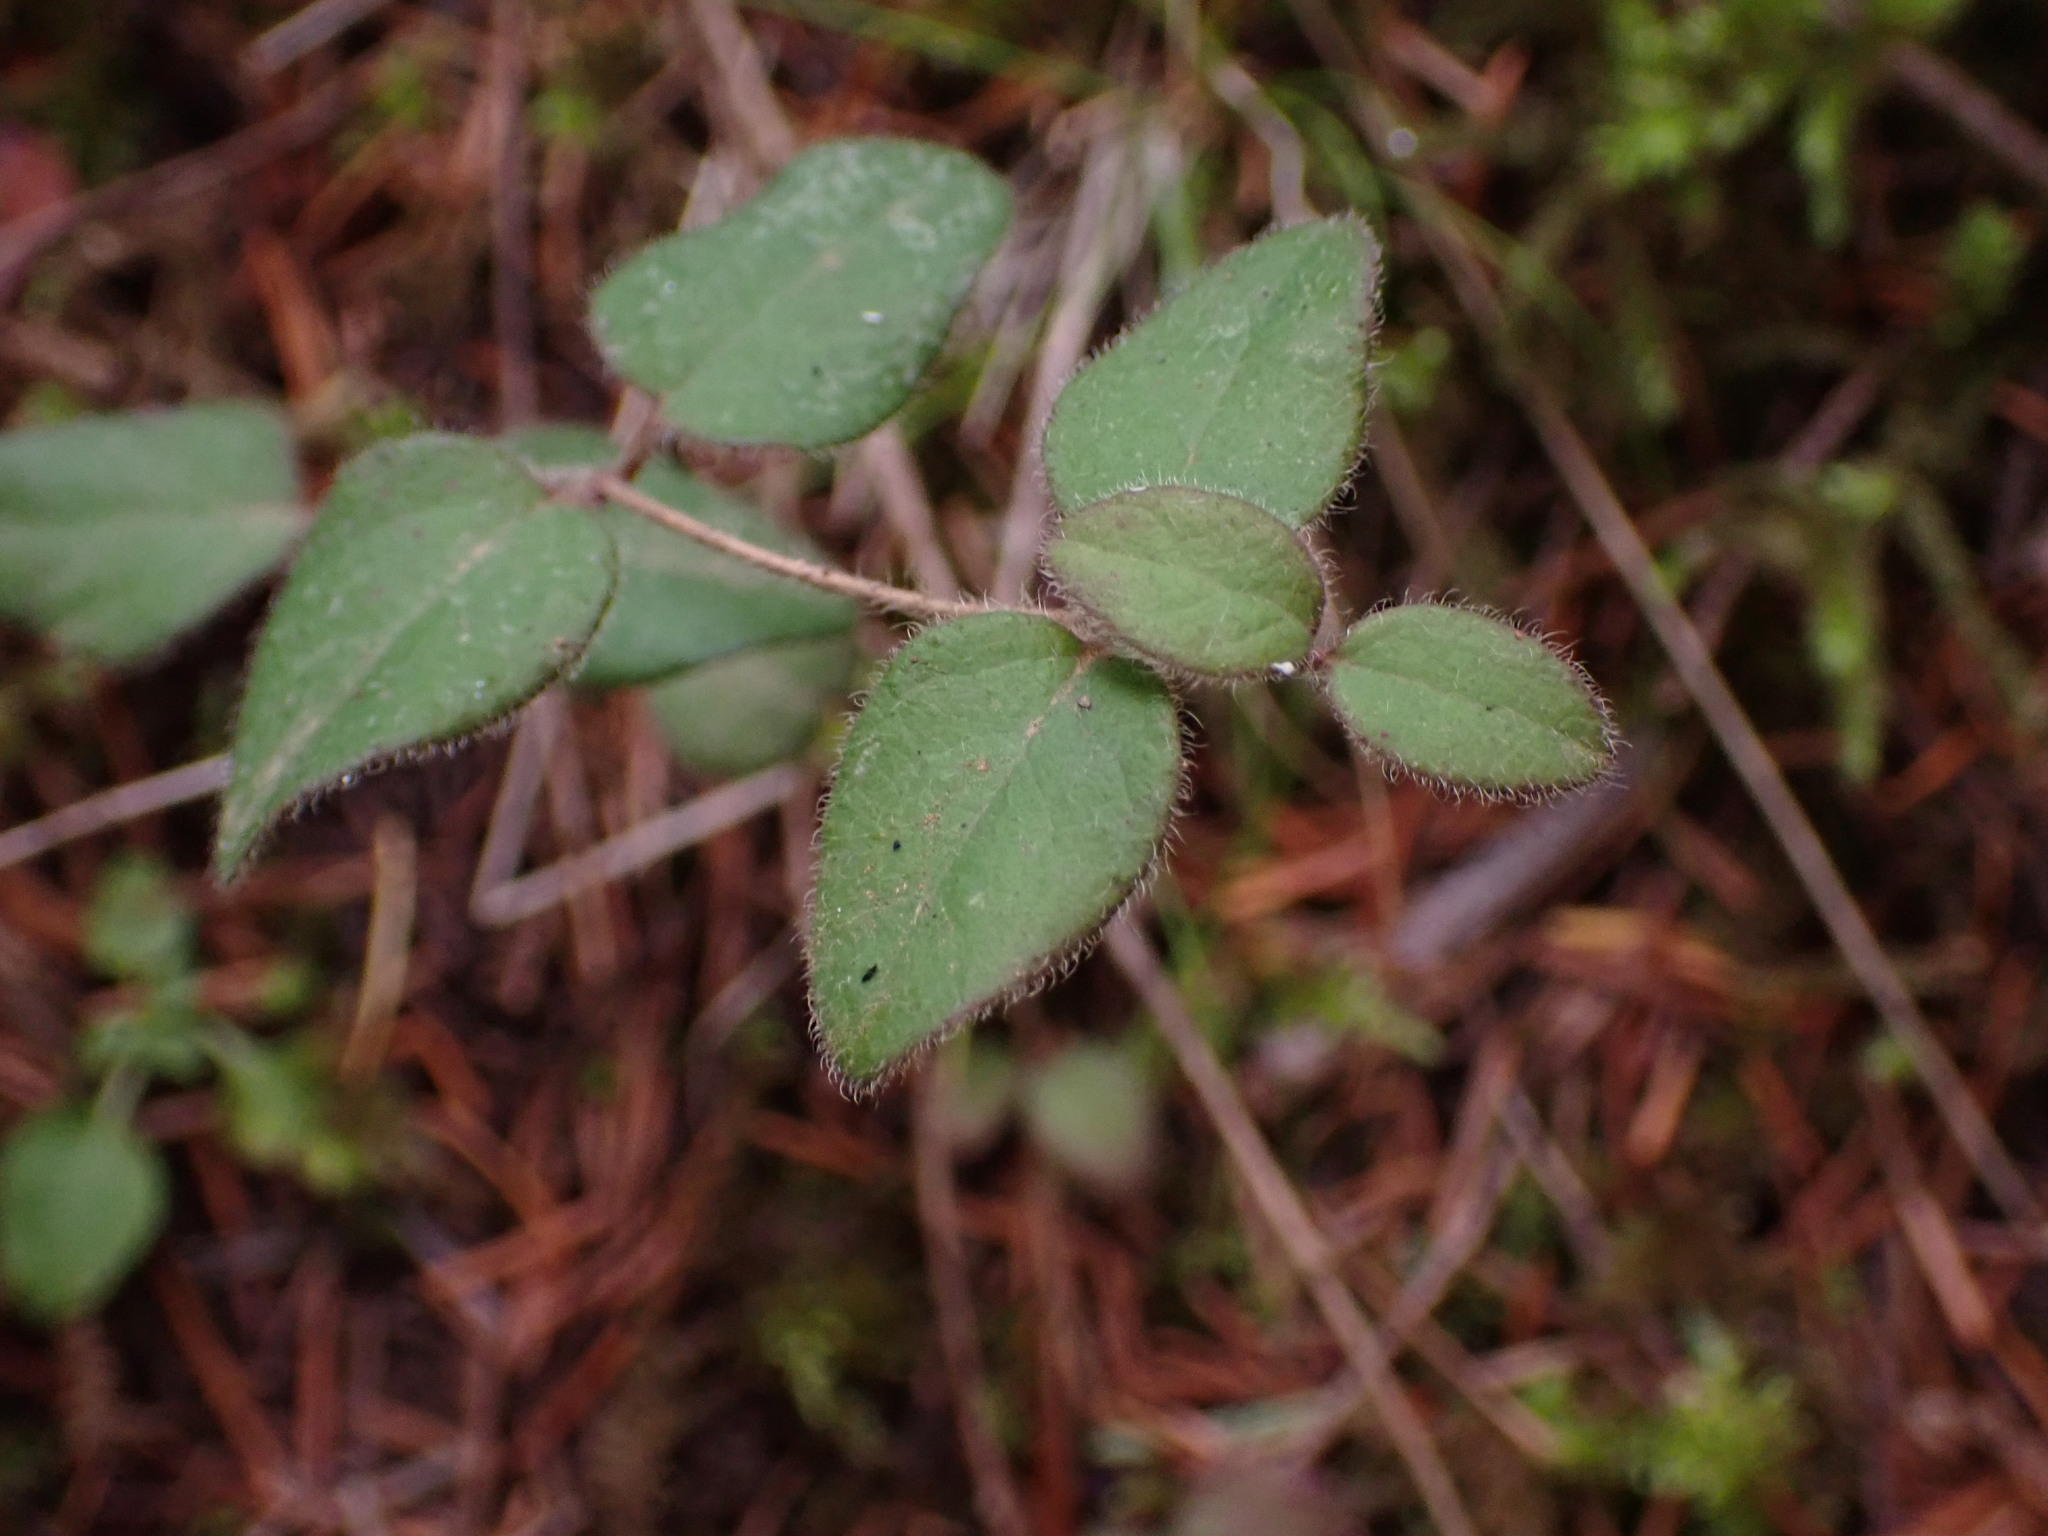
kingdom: Plantae
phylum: Tracheophyta
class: Magnoliopsida
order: Dipsacales
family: Caprifoliaceae
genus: Lonicera
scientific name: Lonicera hispidula
